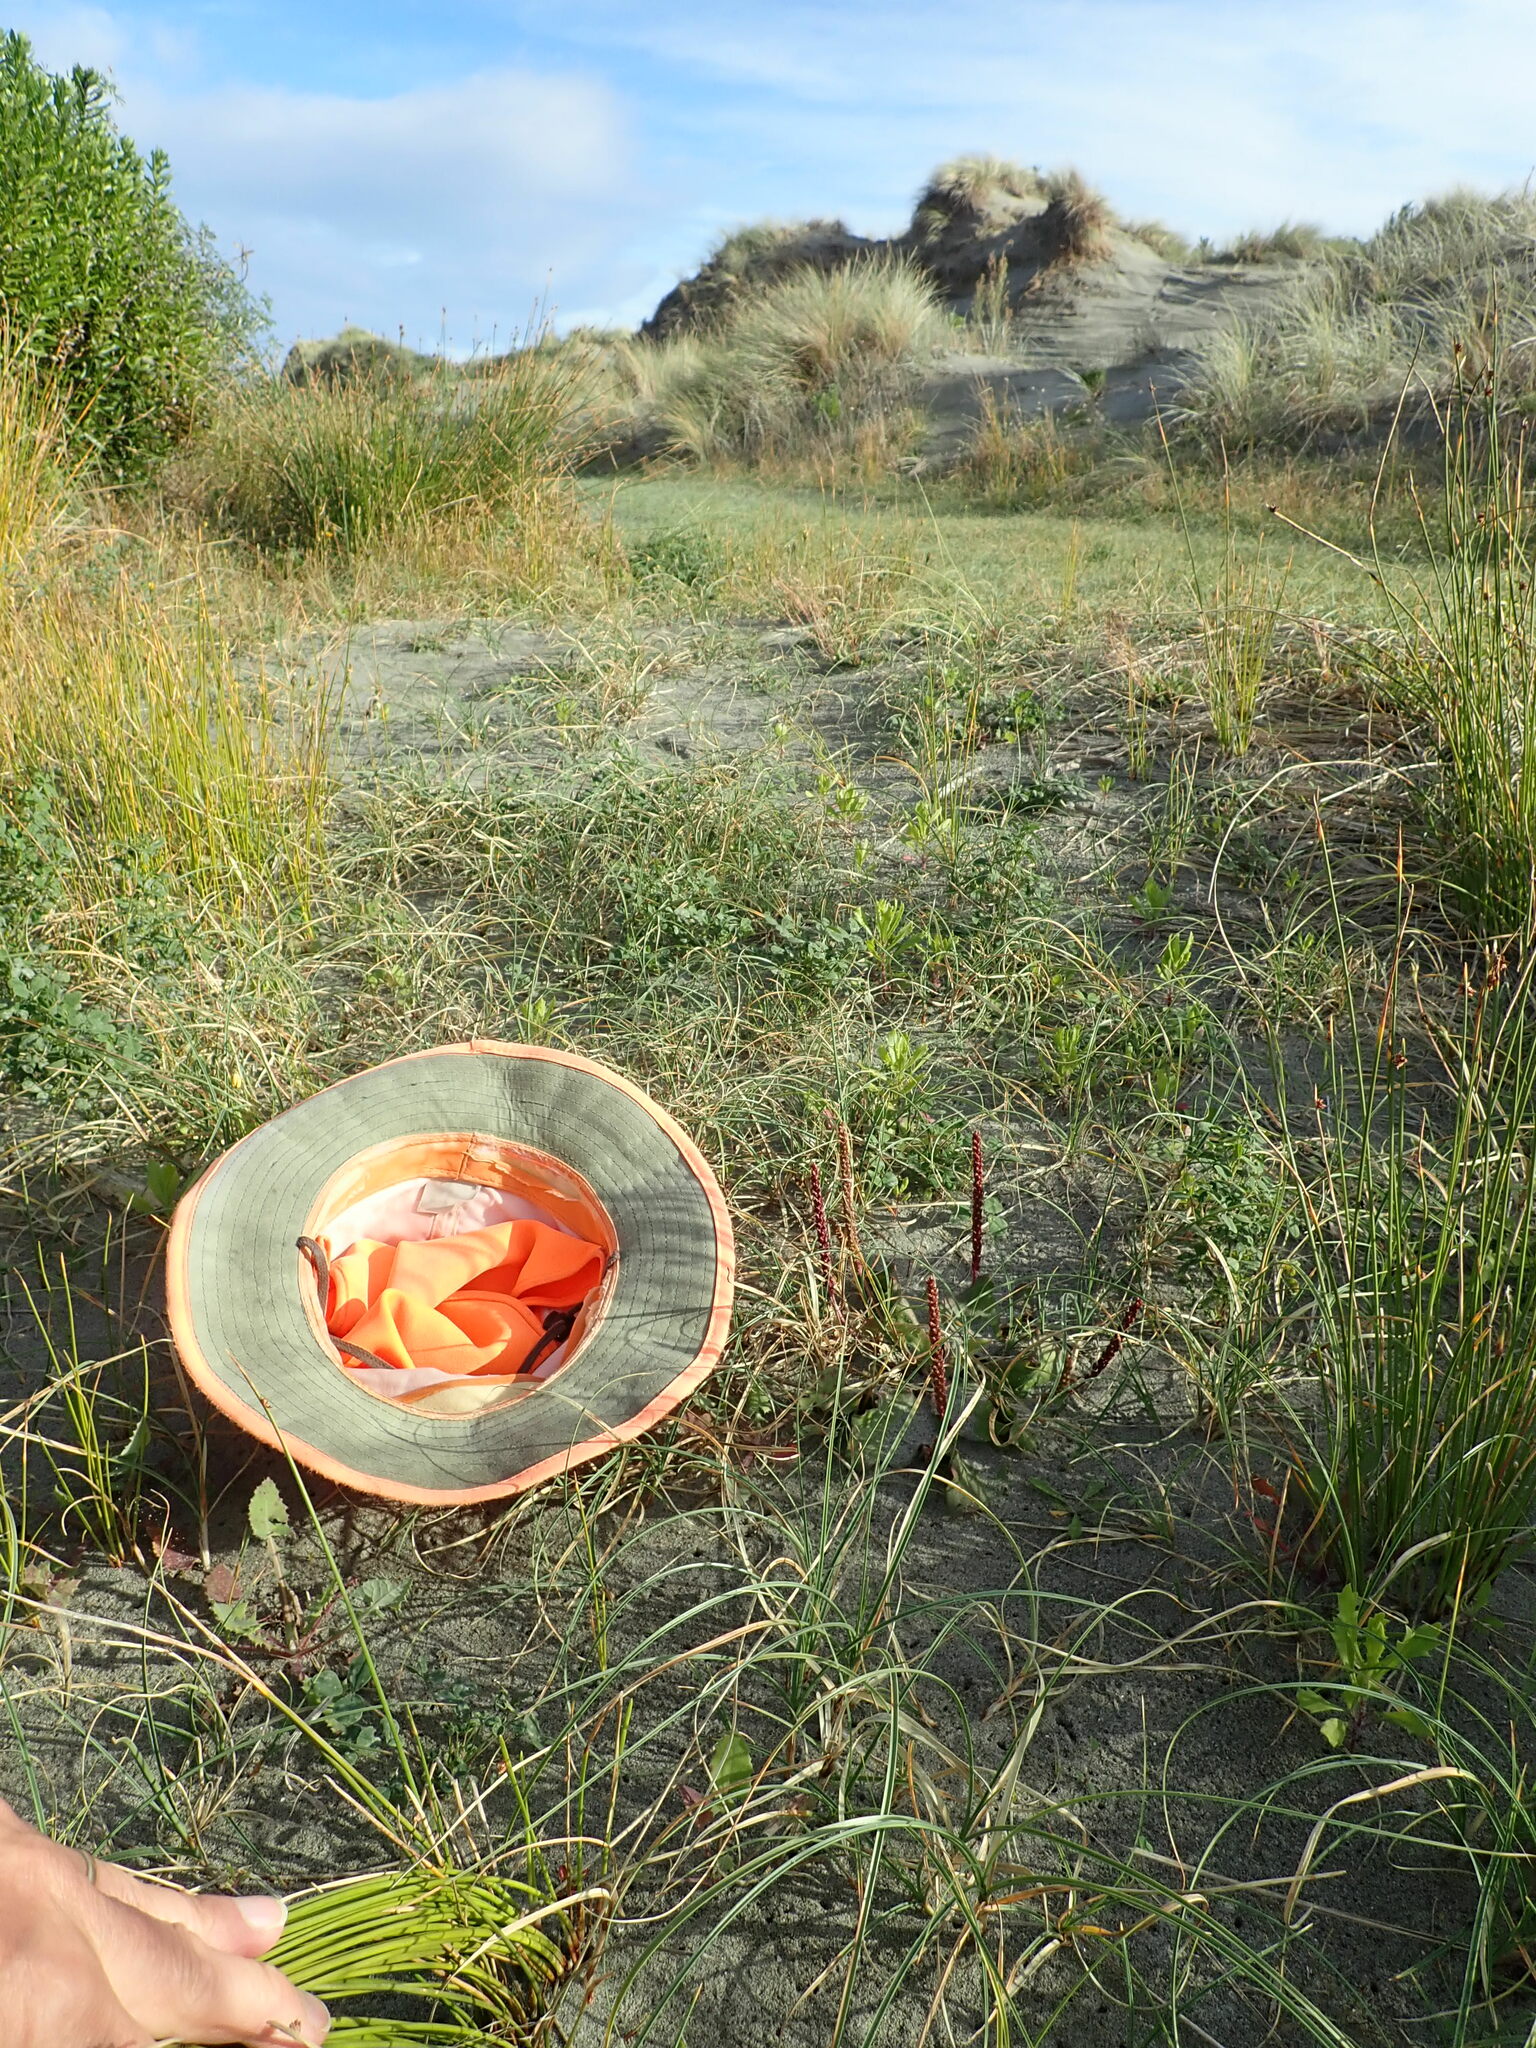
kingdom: Plantae
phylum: Tracheophyta
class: Magnoliopsida
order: Lamiales
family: Plantaginaceae
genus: Plantago
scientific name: Plantago major
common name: Common plantain
